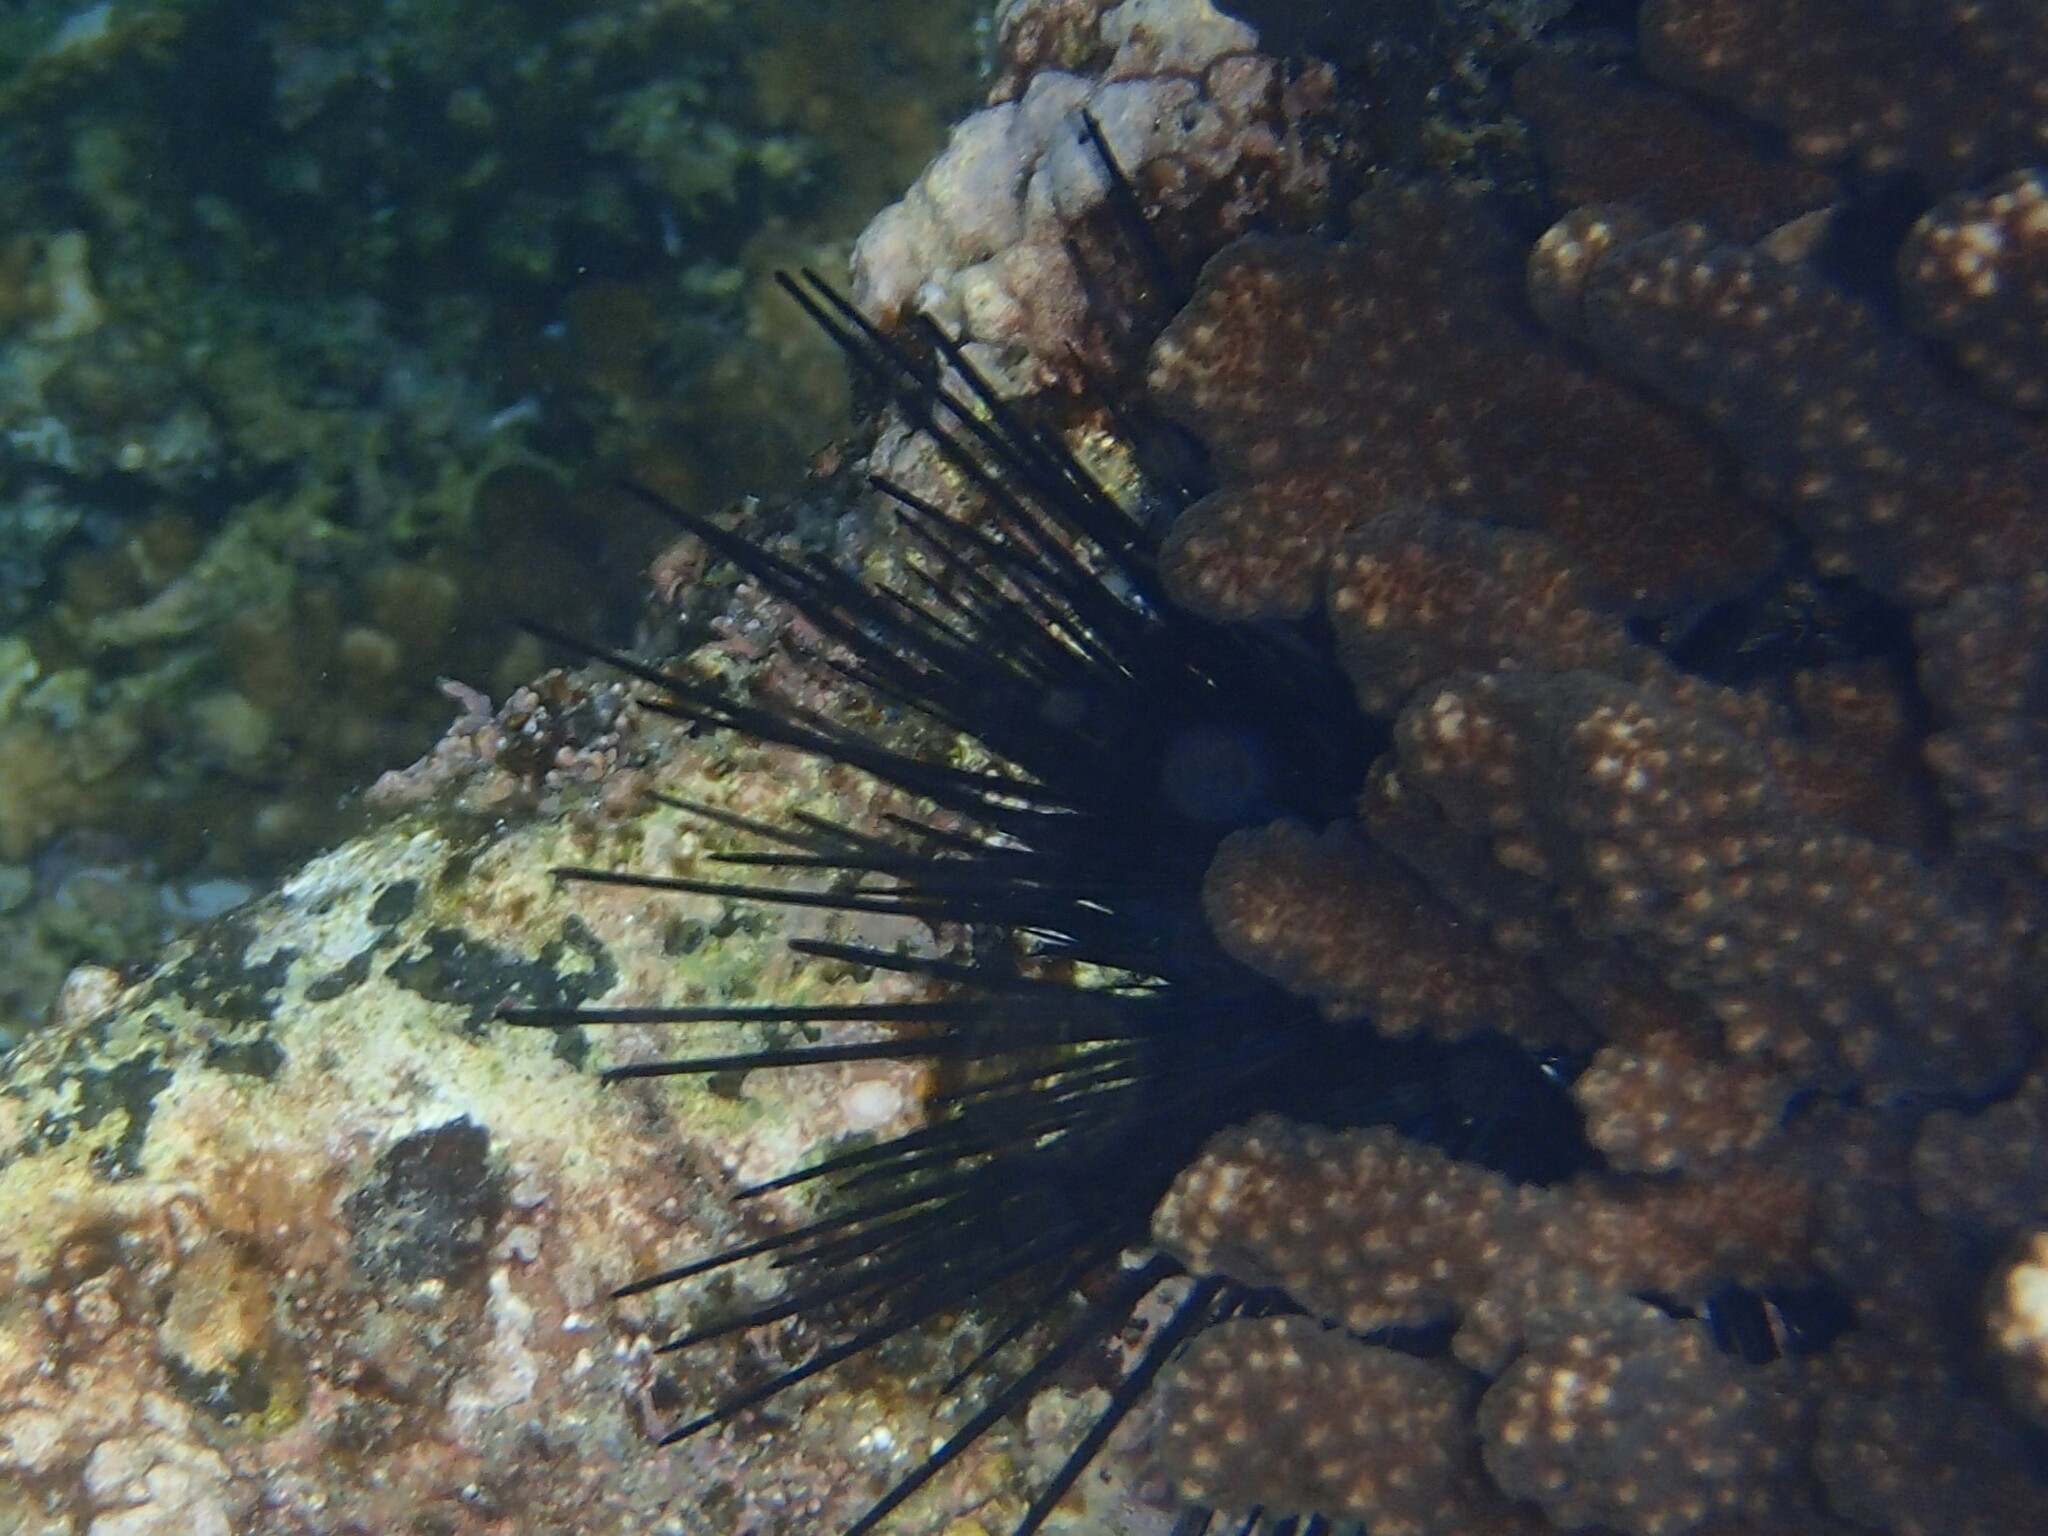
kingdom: Animalia
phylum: Echinodermata
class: Echinoidea
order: Diadematoida
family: Diadematidae
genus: Diadema
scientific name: Diadema mexicanum
